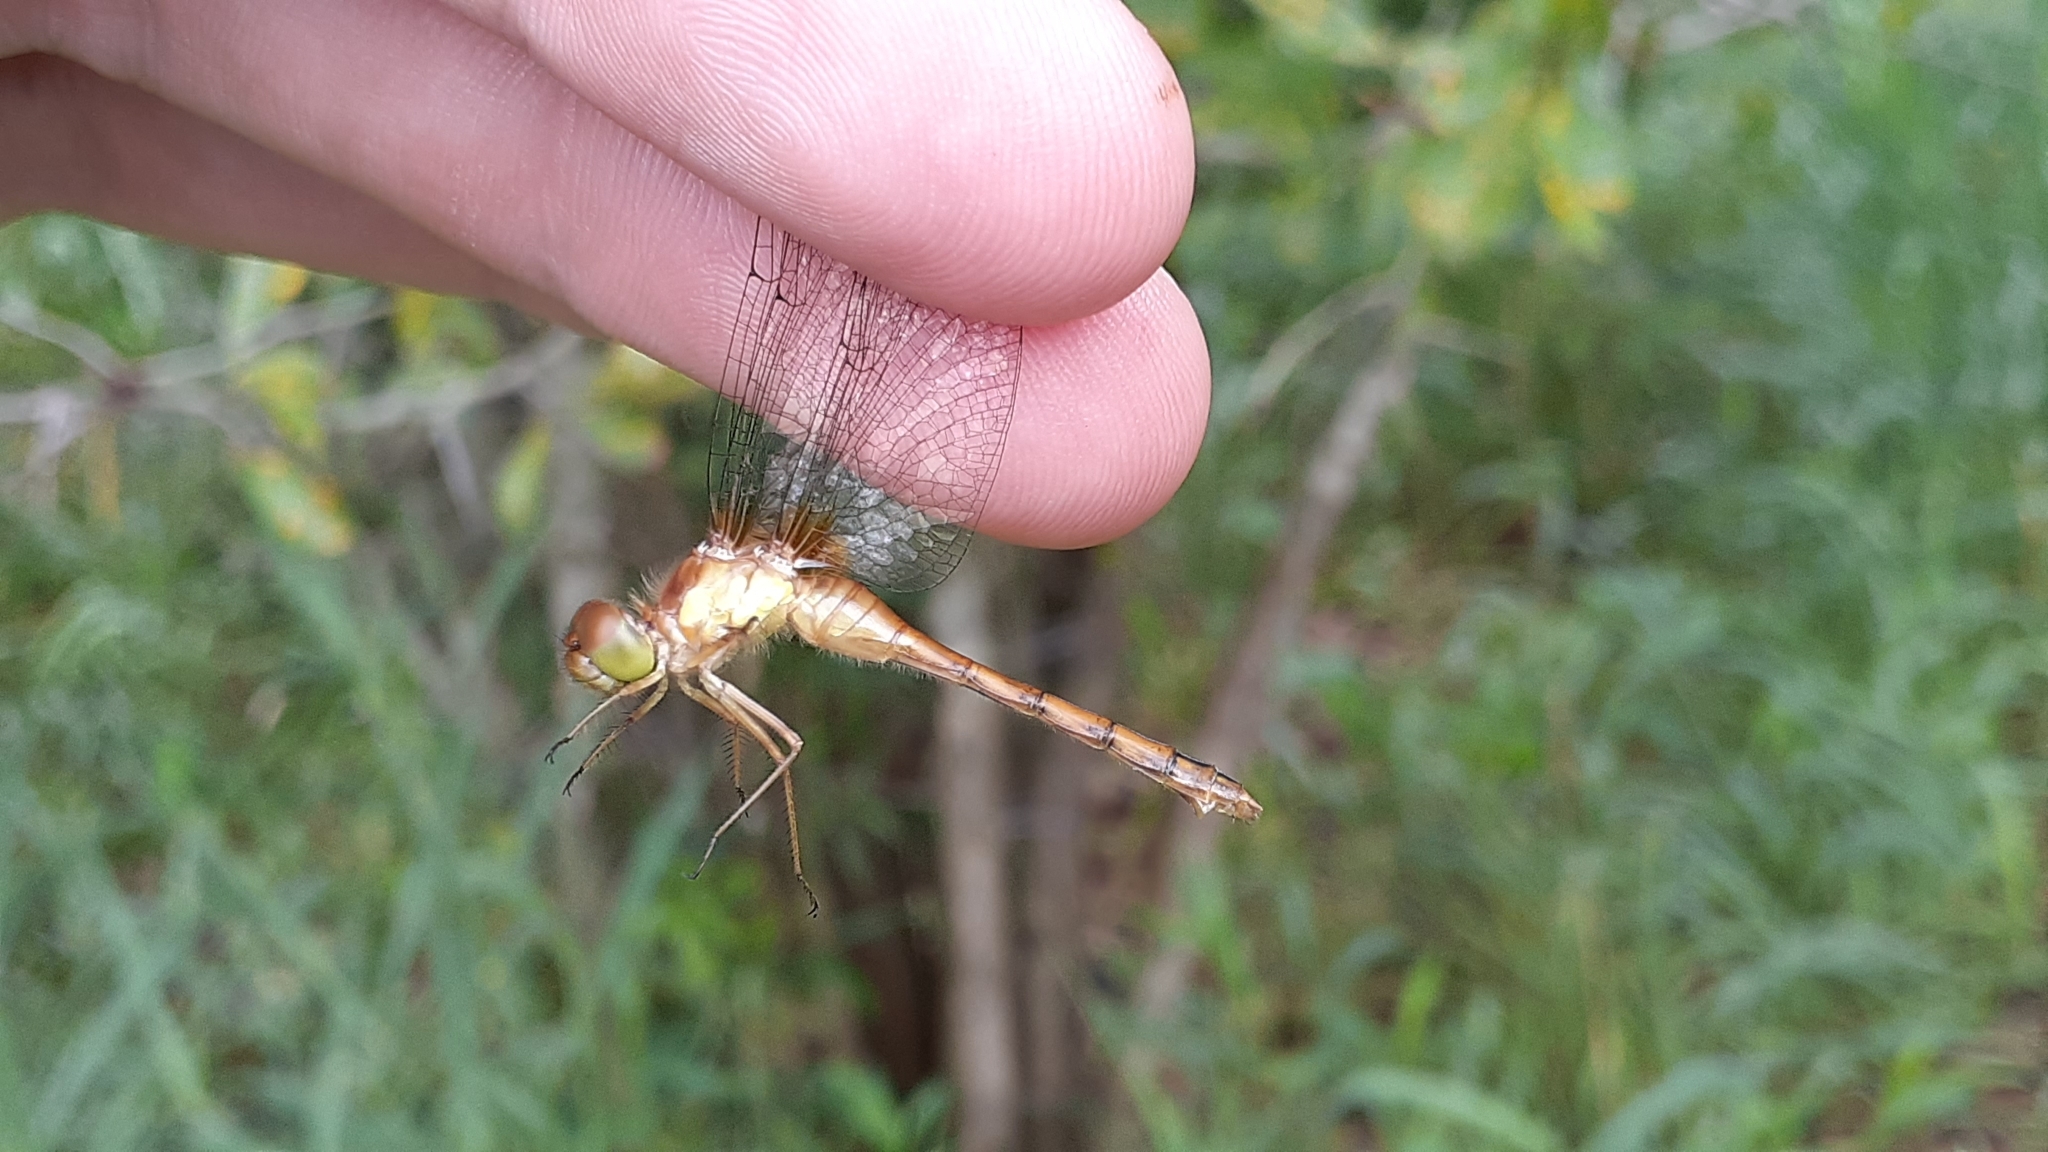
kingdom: Animalia
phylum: Arthropoda
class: Insecta
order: Odonata
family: Libellulidae
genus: Sympetrum
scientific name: Sympetrum vicinum
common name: Autumn meadowhawk
